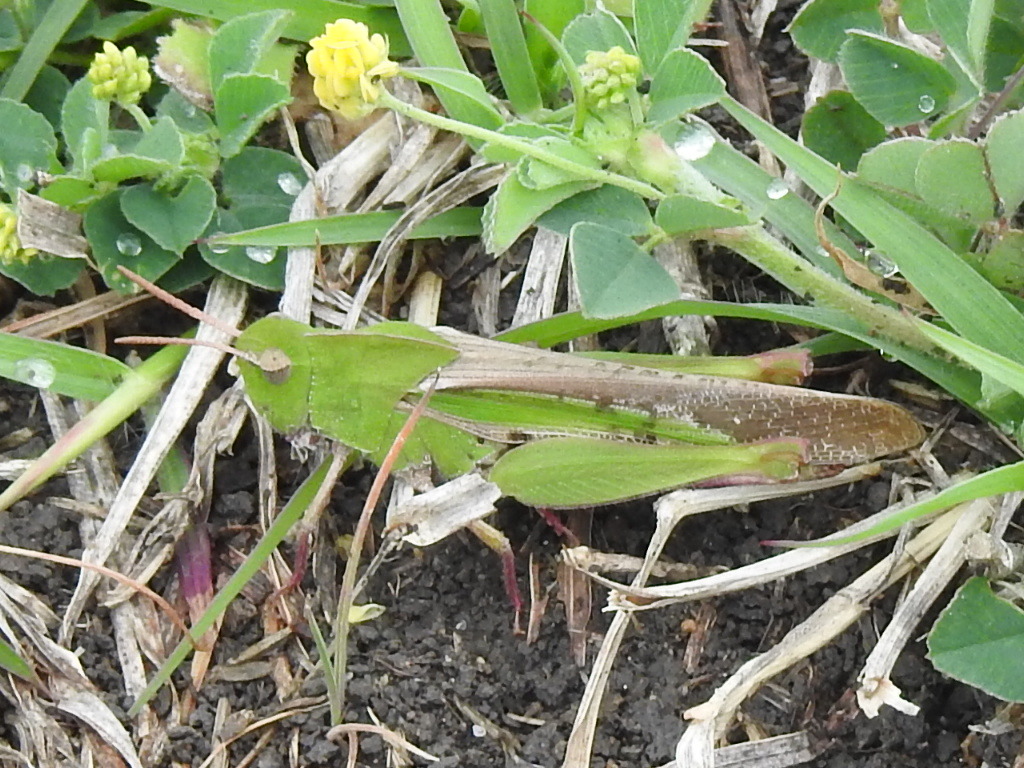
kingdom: Animalia
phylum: Arthropoda
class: Insecta
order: Orthoptera
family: Acrididae
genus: Chortophaga
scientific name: Chortophaga viridifasciata
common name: Green-striped grasshopper
